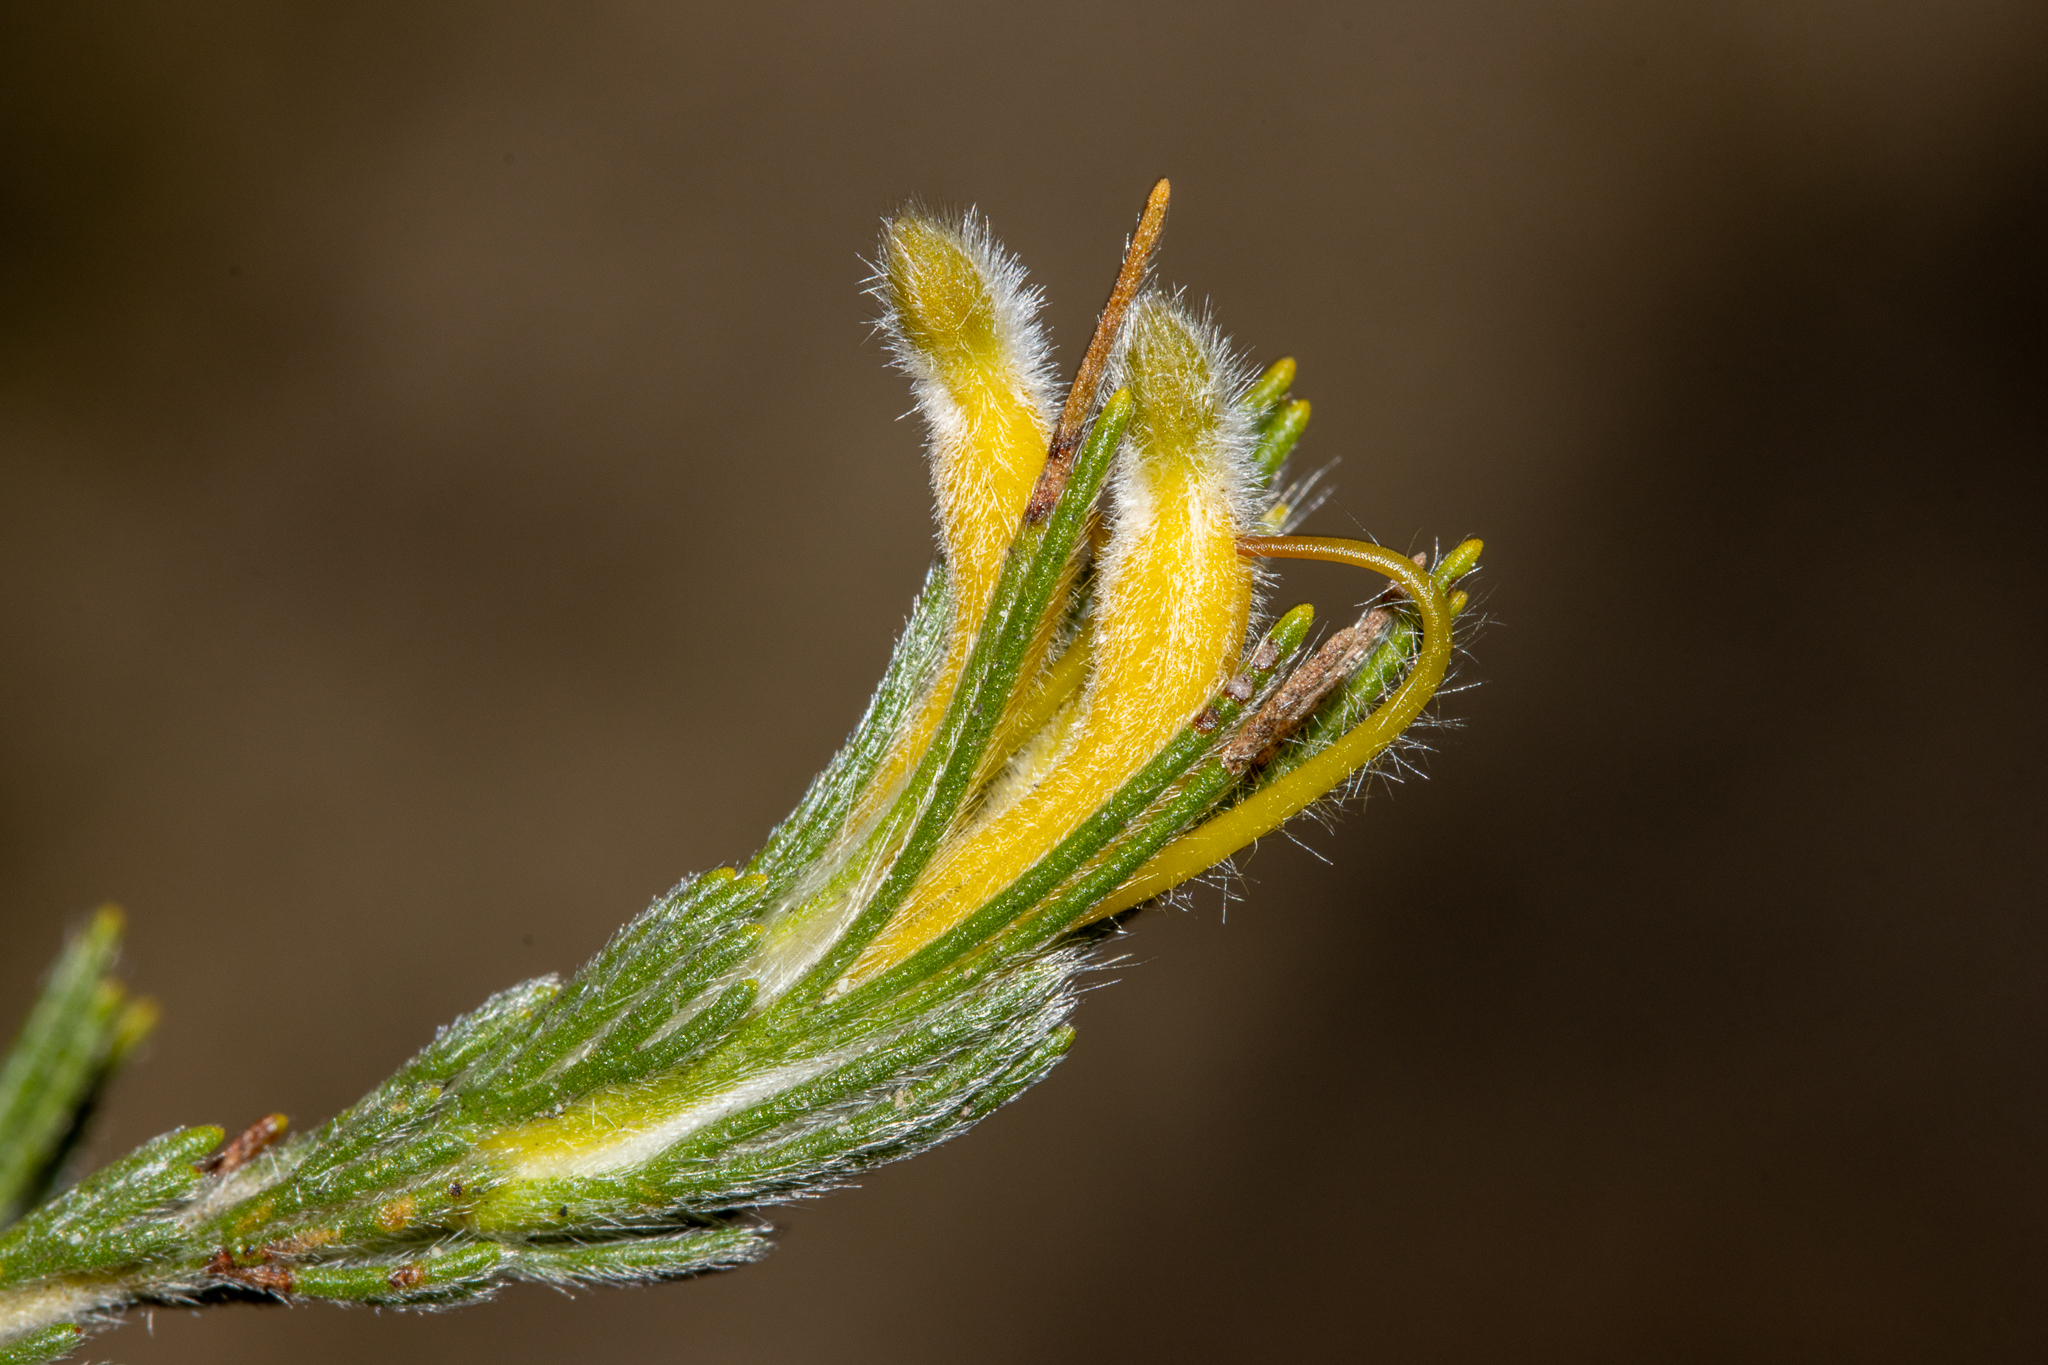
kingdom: Plantae
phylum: Tracheophyta
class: Magnoliopsida
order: Proteales
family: Proteaceae
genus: Adenanthos
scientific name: Adenanthos terminalis
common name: Yellow gland-flower
